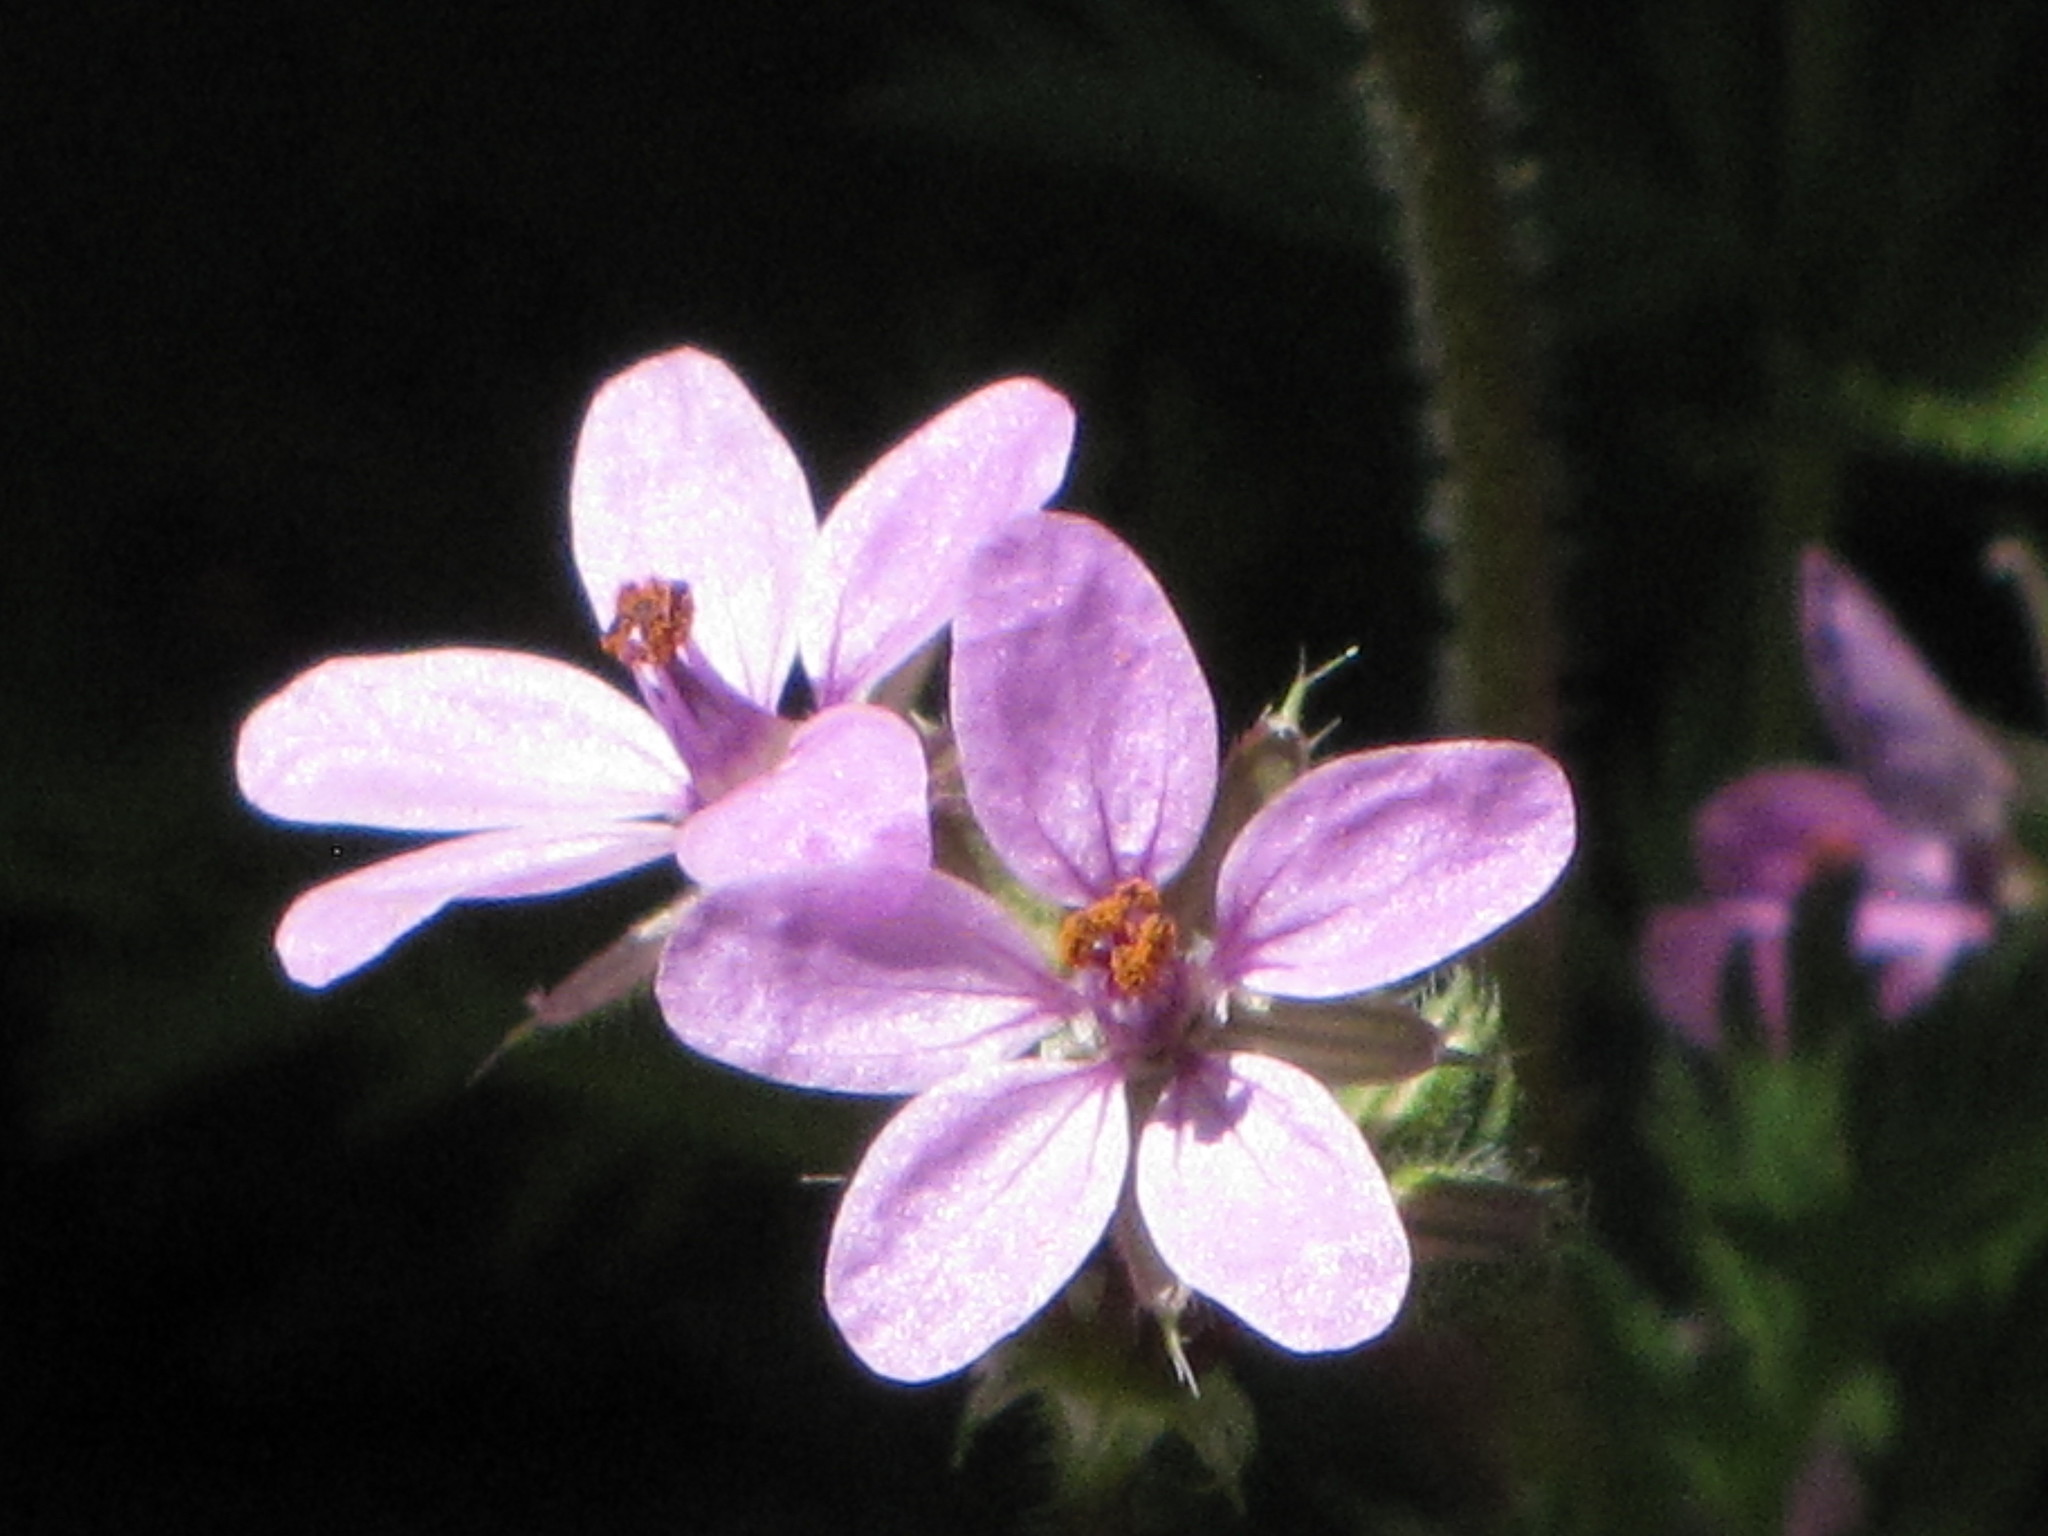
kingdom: Plantae
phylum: Tracheophyta
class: Magnoliopsida
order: Geraniales
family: Geraniaceae
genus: Erodium
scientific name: Erodium cicutarium
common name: Common stork's-bill
